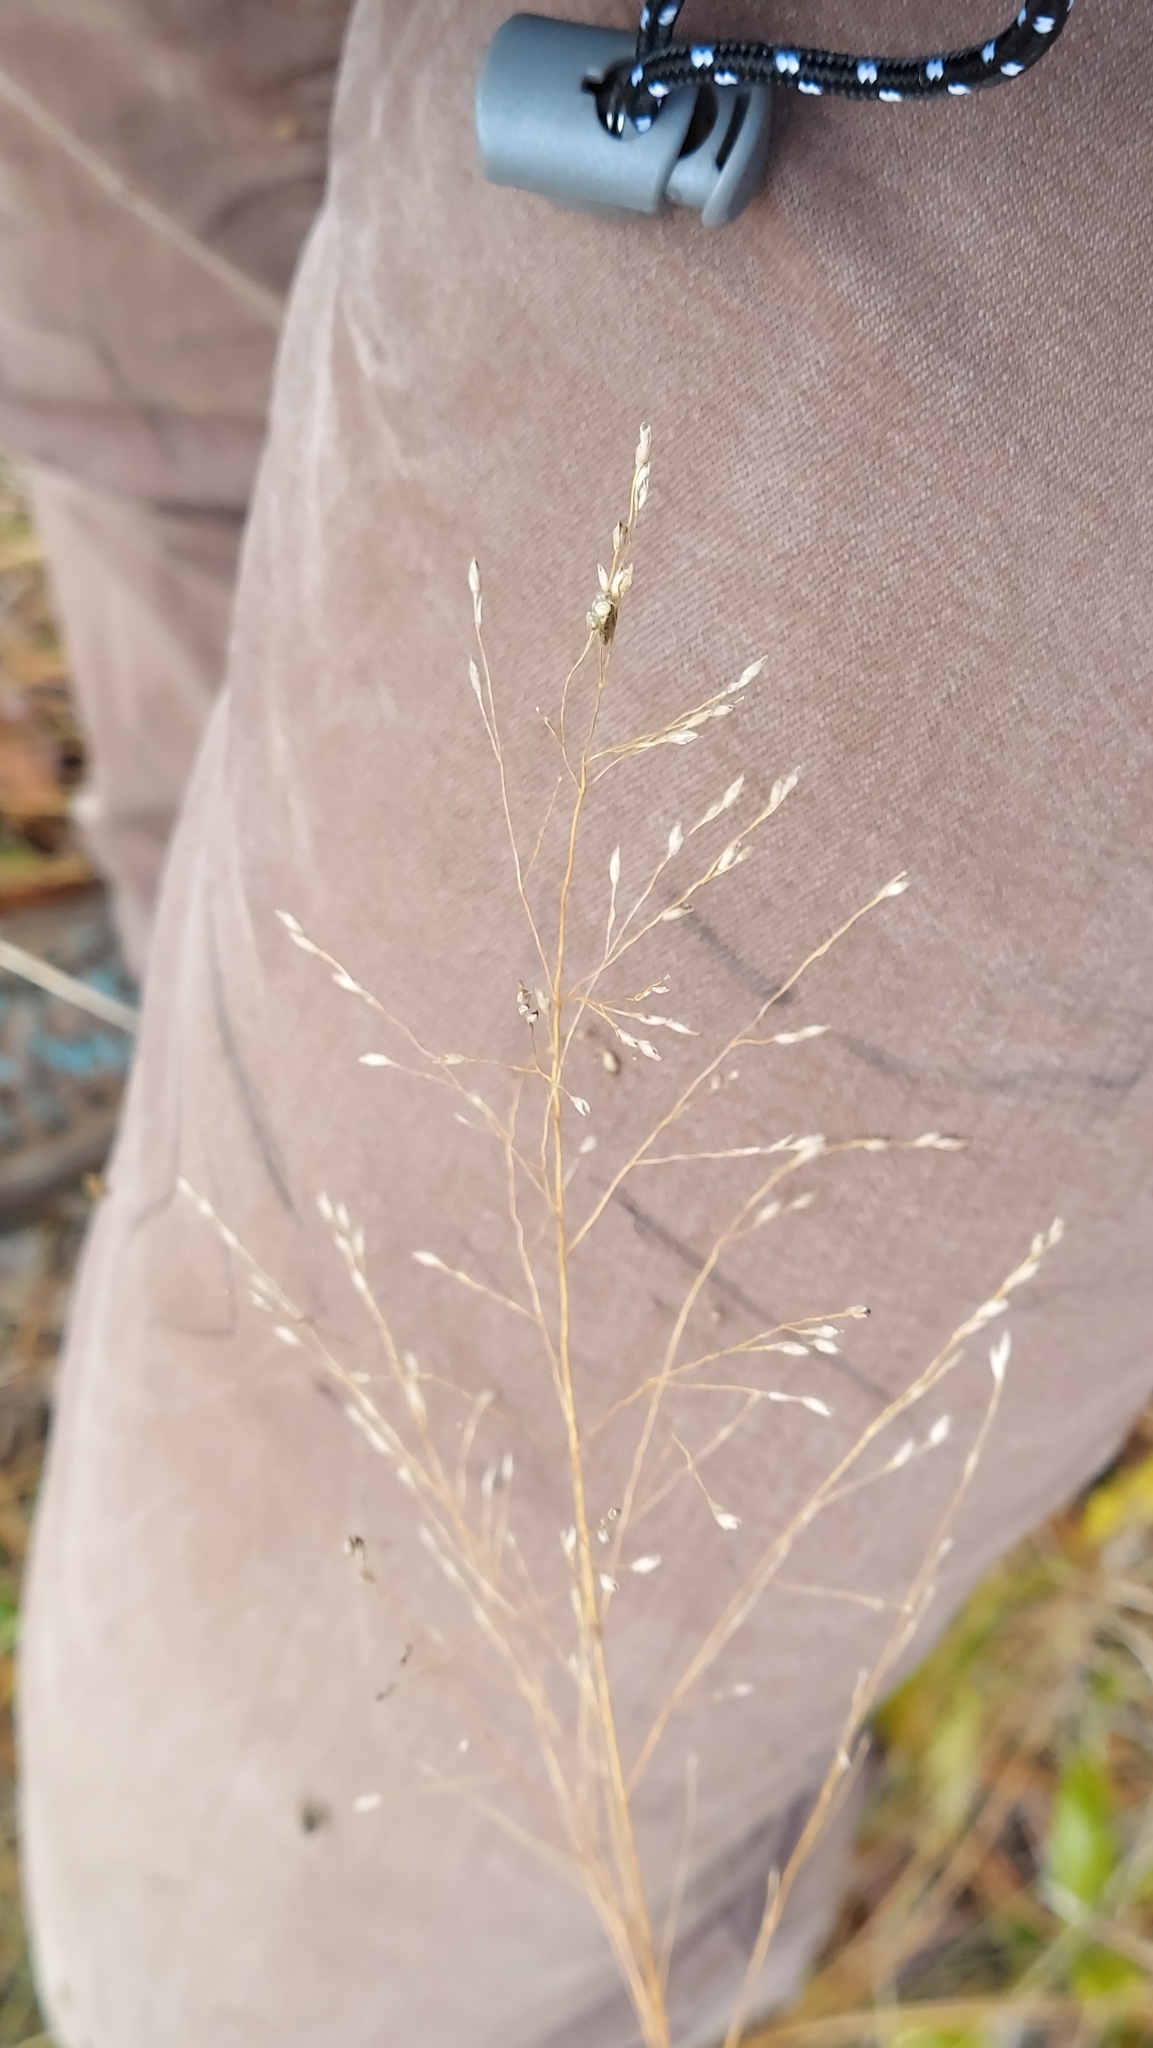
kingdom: Plantae
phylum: Tracheophyta
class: Liliopsida
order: Poales
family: Poaceae
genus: Panicum
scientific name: Panicum virgatum
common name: Switchgrass
